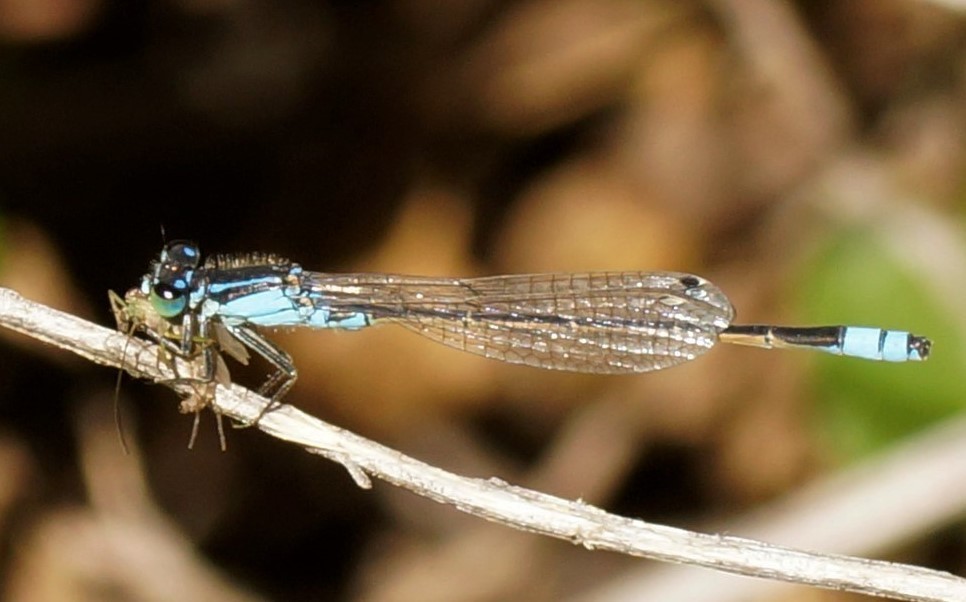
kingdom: Animalia
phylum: Arthropoda
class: Insecta
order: Odonata
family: Coenagrionidae
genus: Ischnura
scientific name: Ischnura heterosticta
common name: Common bluetail
